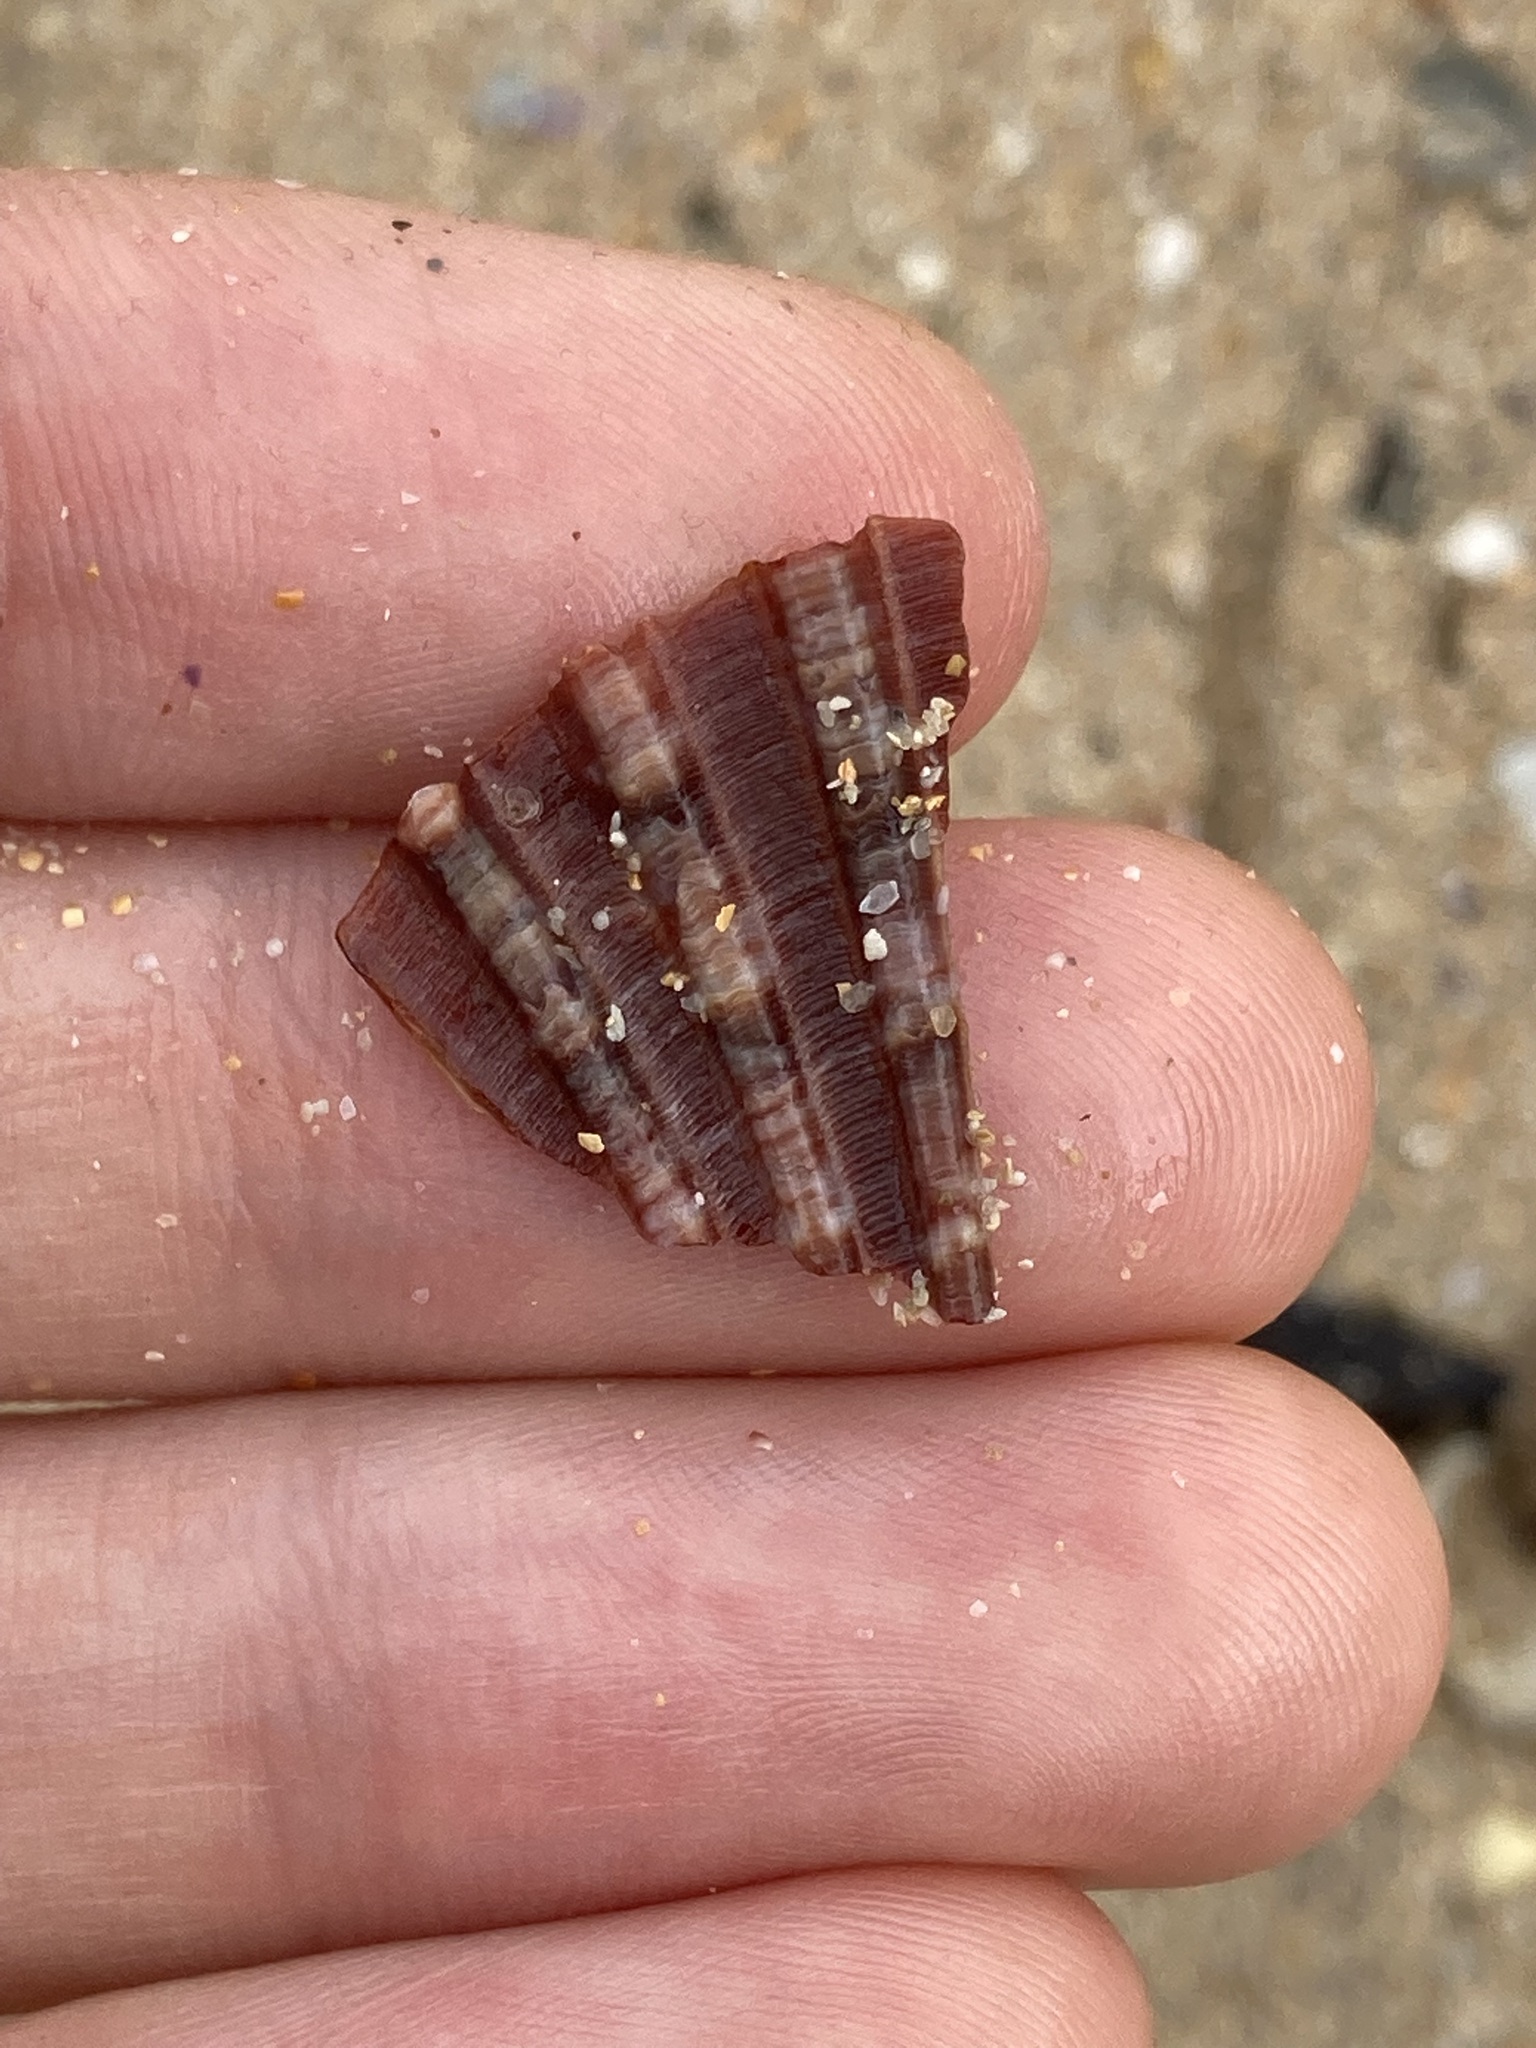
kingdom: Animalia
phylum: Mollusca
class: Bivalvia
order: Pectinida
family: Pectinidae
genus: Pecten
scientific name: Pecten fumatus
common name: Australian scallop
